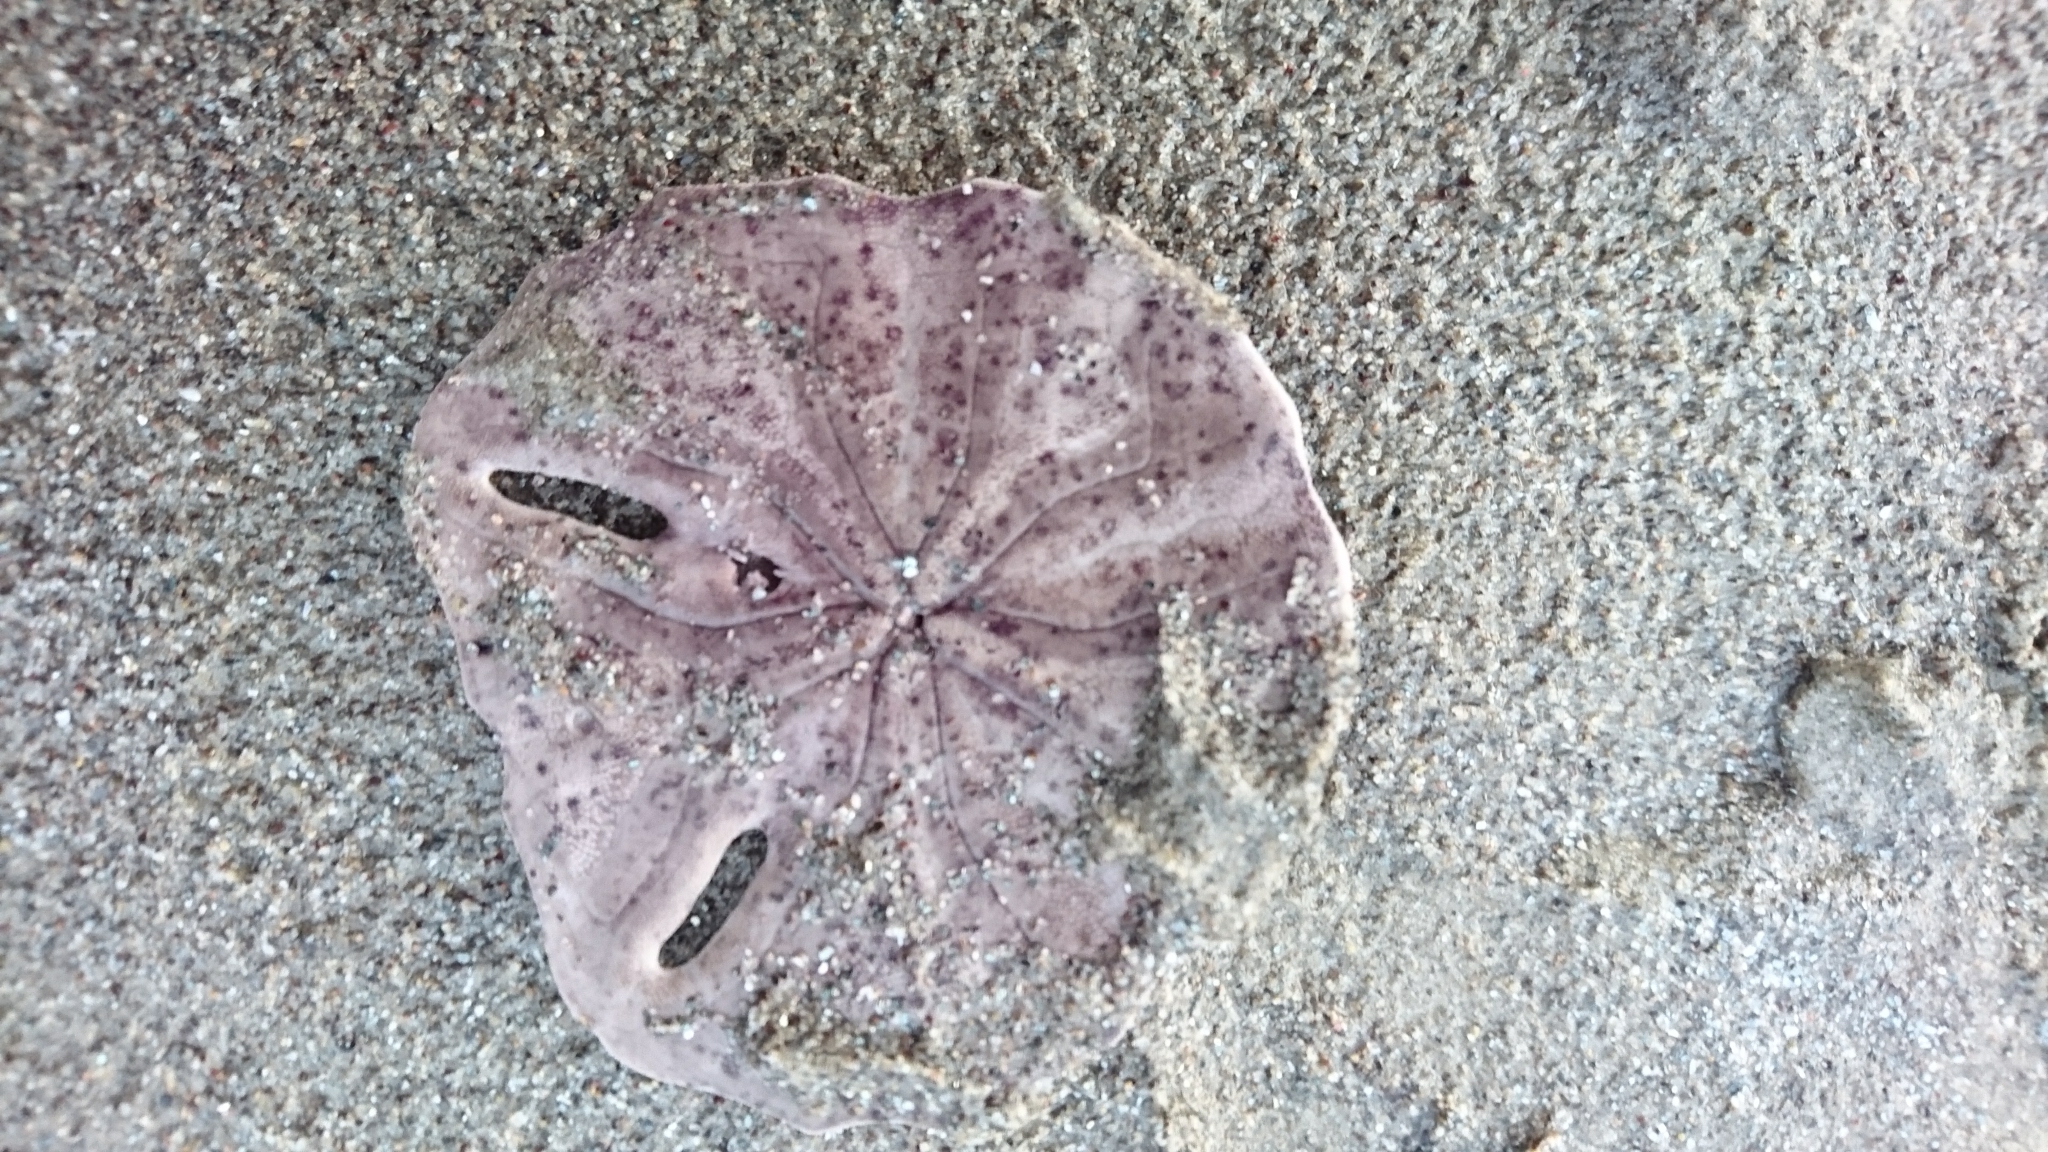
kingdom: Animalia
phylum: Echinodermata
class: Echinoidea
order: Echinolampadacea
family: Astriclypeidae
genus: Echinodiscus
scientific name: Echinodiscus
